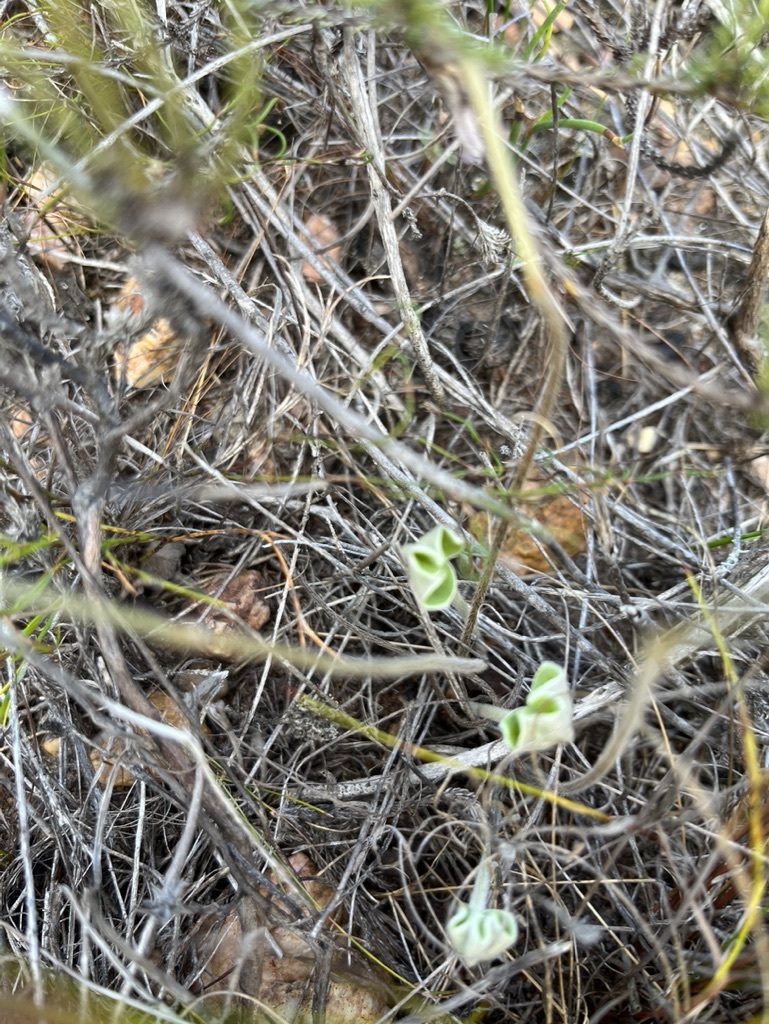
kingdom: Plantae
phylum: Tracheophyta
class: Magnoliopsida
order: Oxalidales
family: Oxalidaceae
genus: Oxalis
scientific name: Oxalis truncatula
